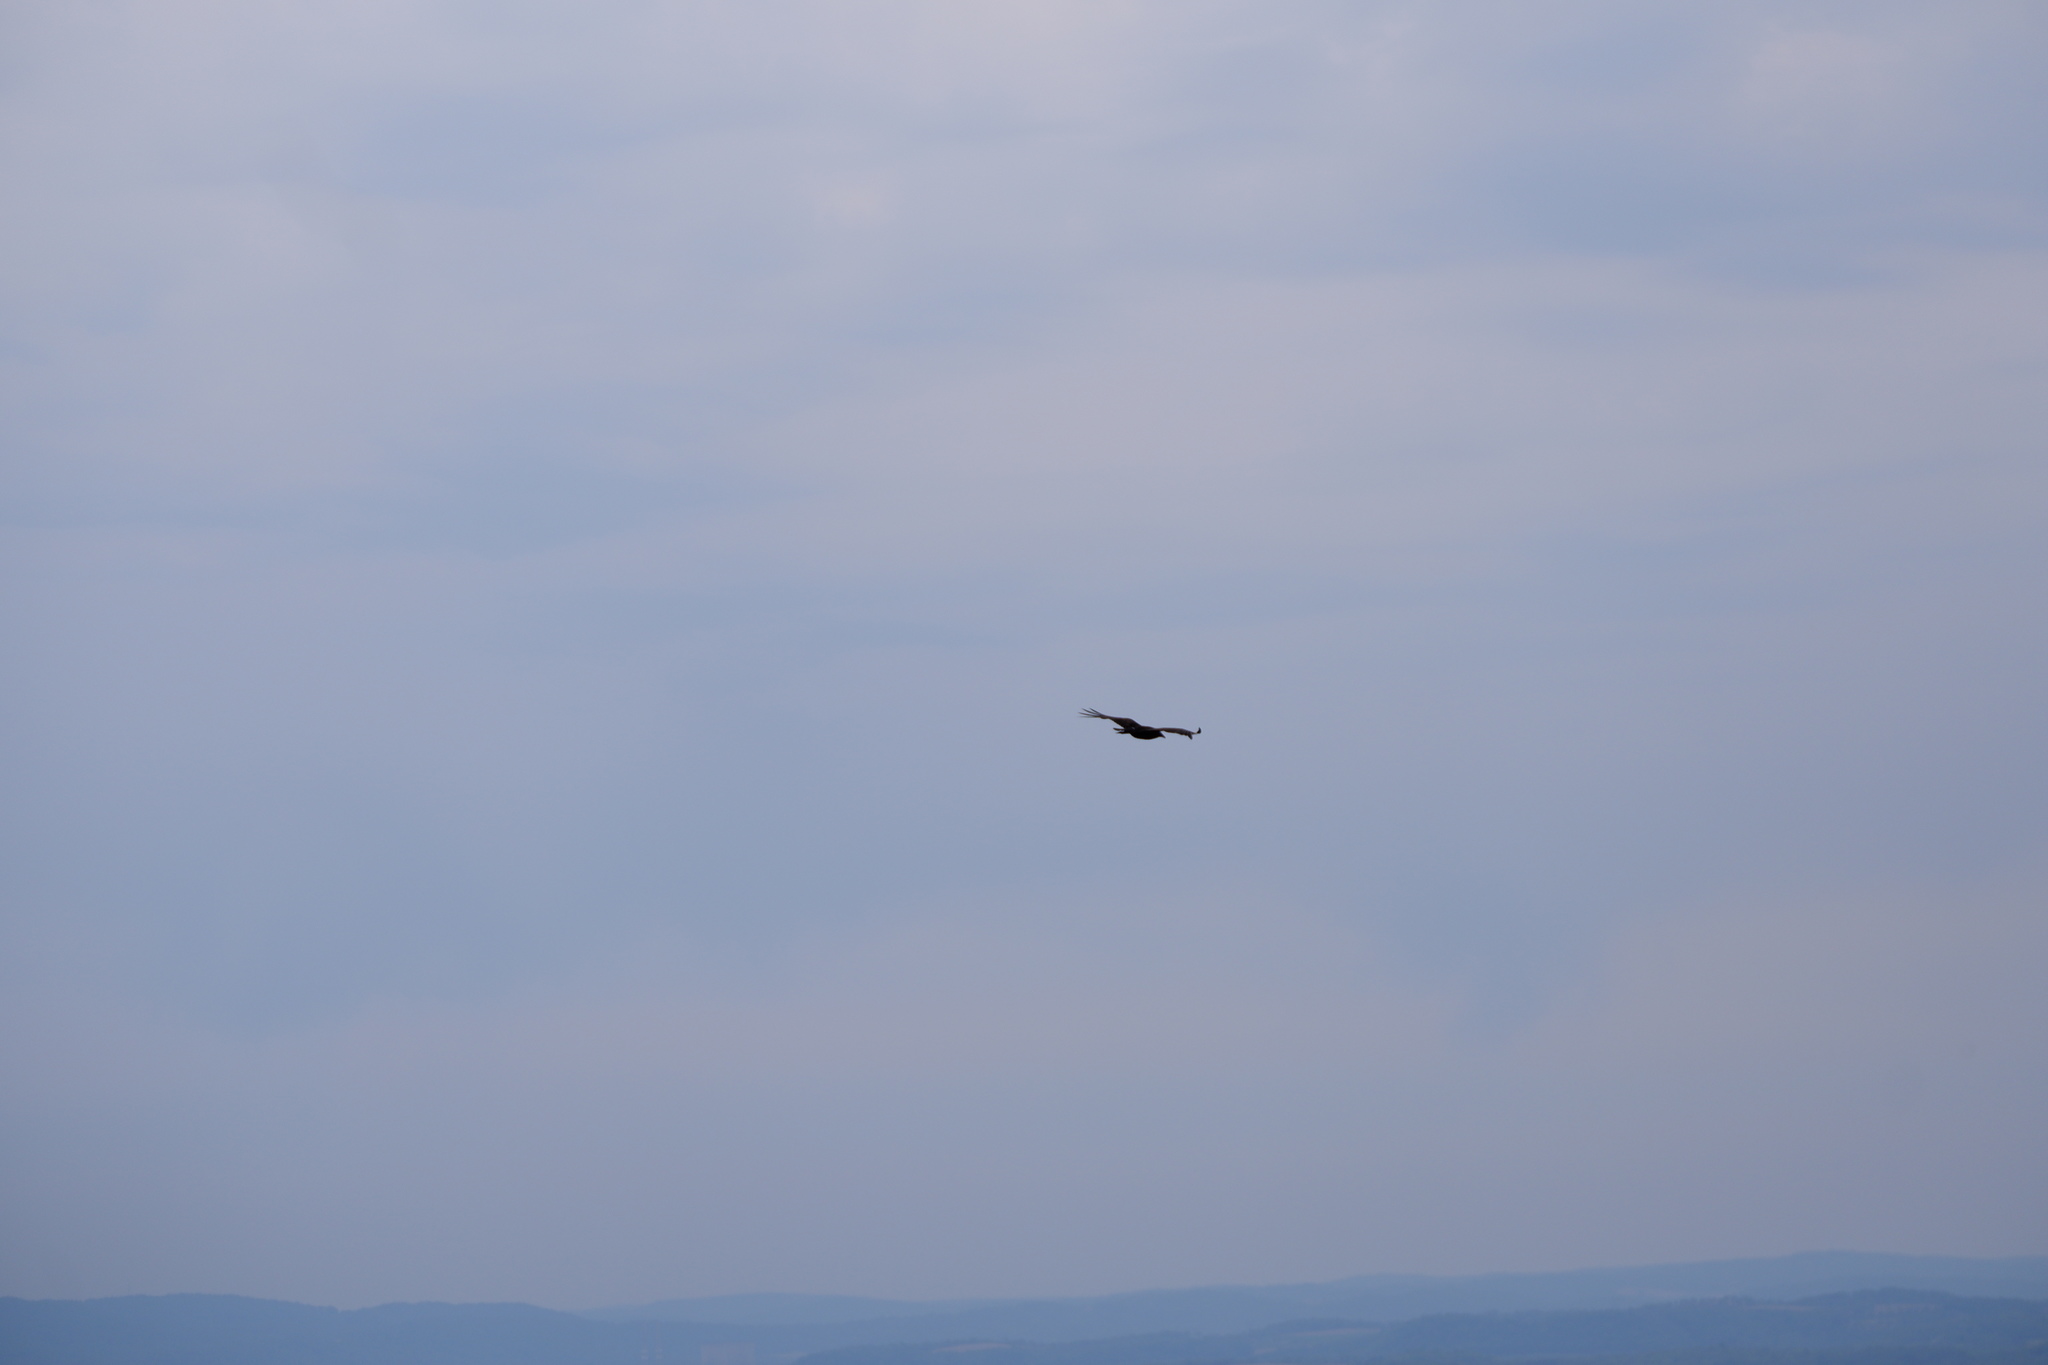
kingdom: Animalia
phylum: Chordata
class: Aves
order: Accipitriformes
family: Cathartidae
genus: Cathartes
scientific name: Cathartes aura
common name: Turkey vulture
